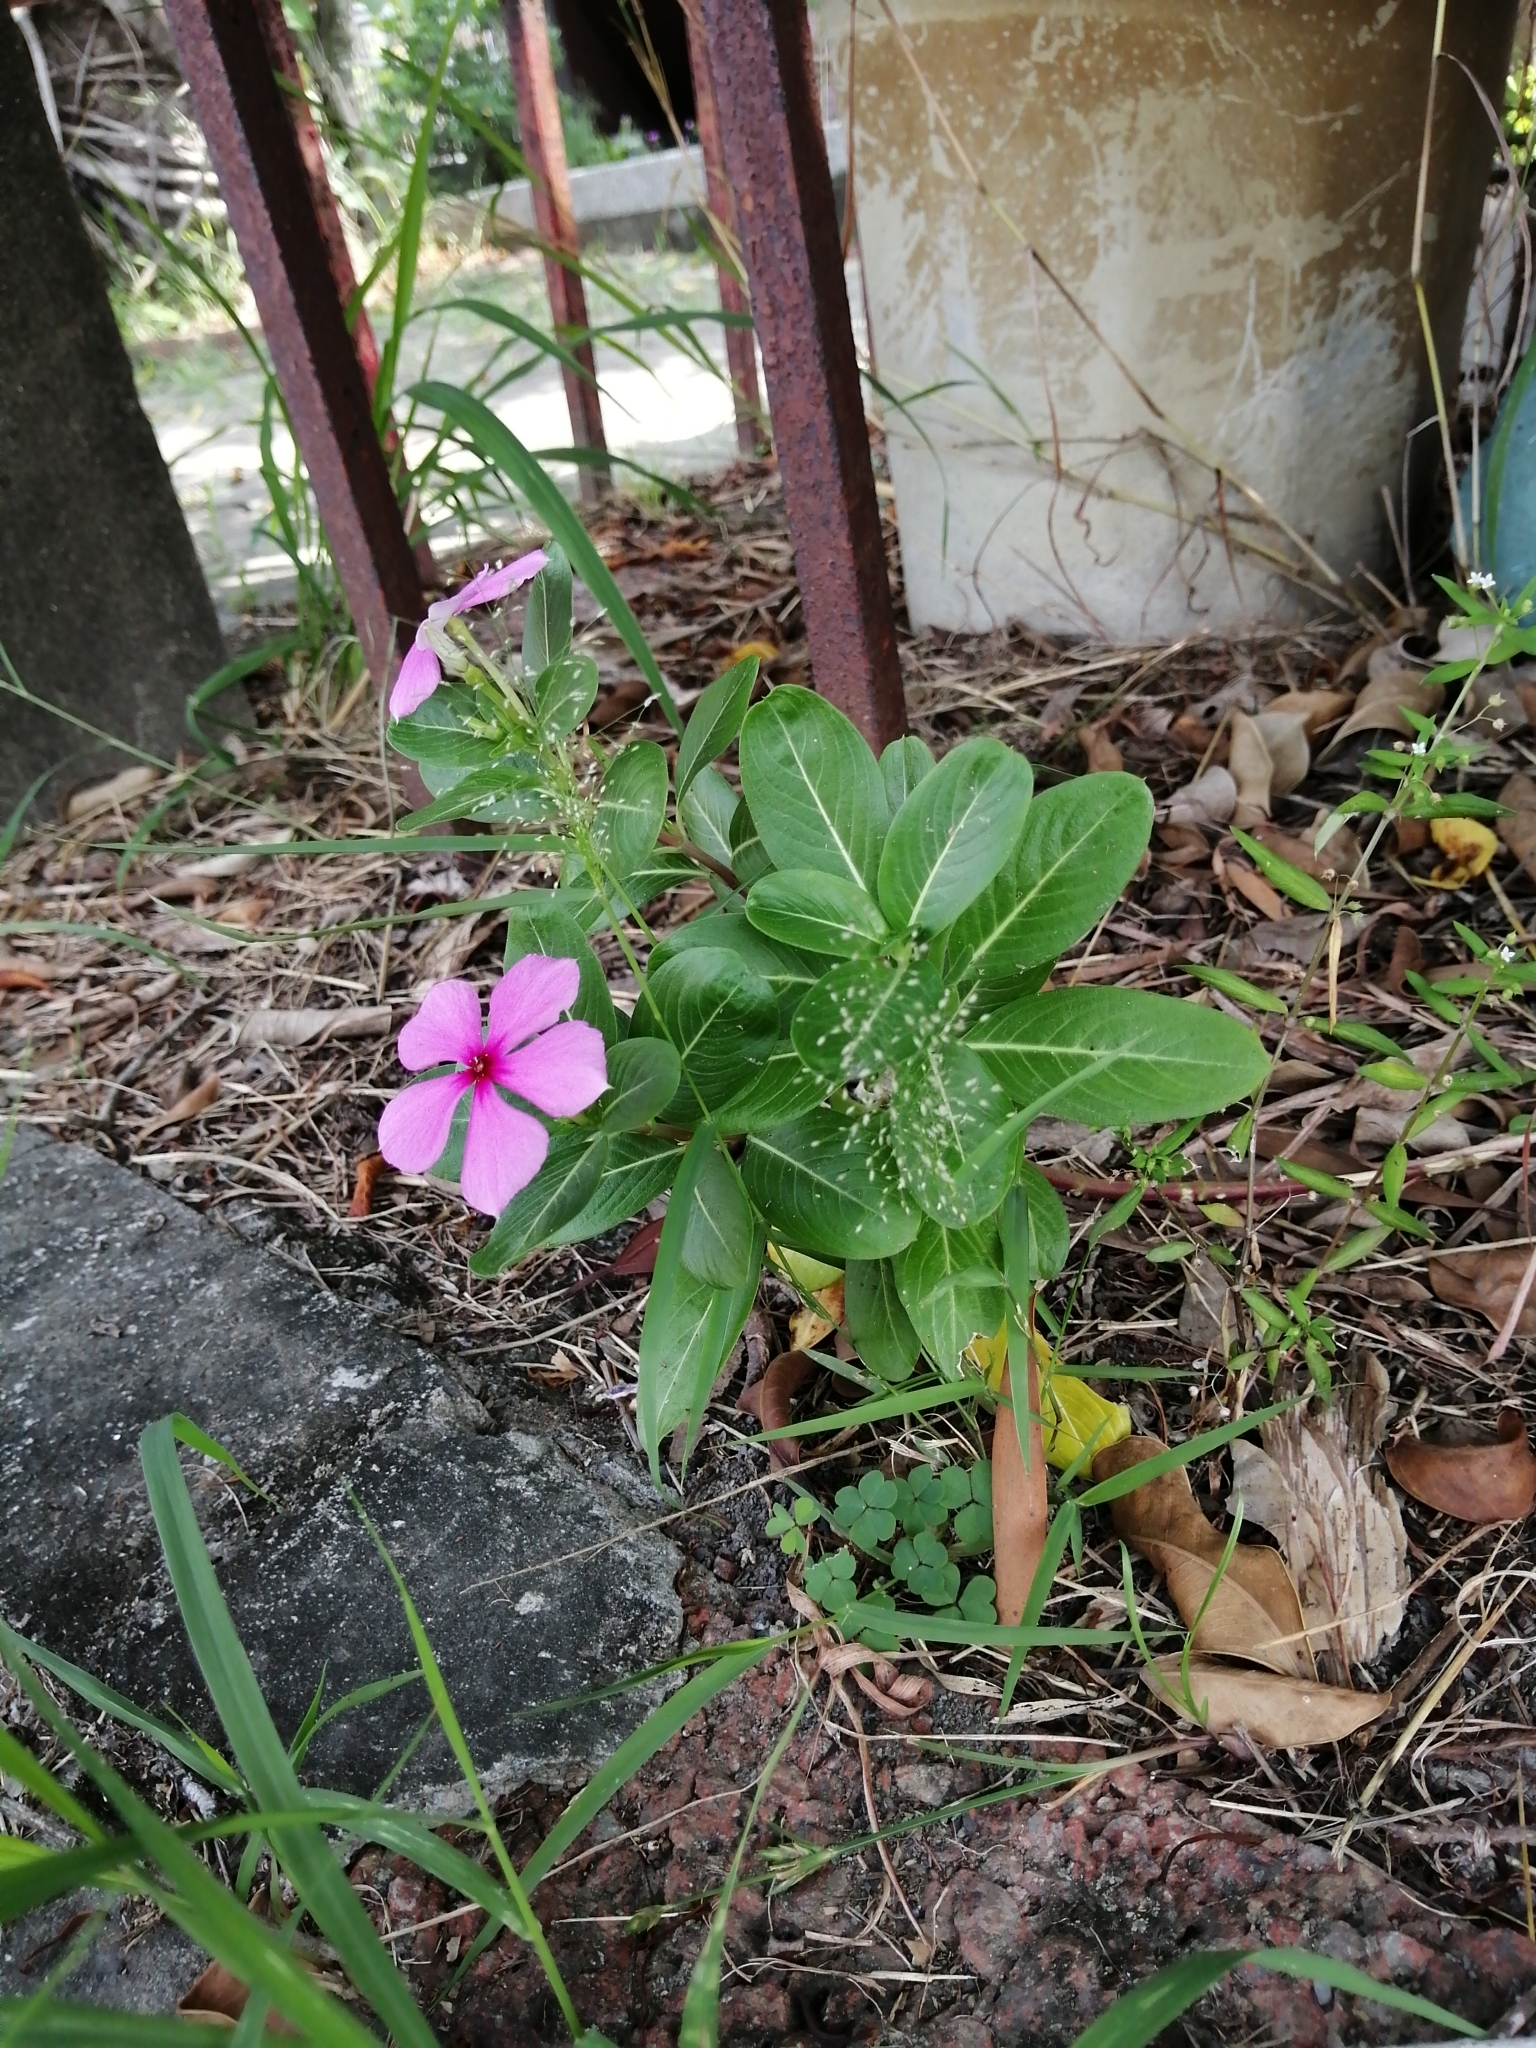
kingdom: Plantae
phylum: Tracheophyta
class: Magnoliopsida
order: Gentianales
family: Apocynaceae
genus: Catharanthus
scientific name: Catharanthus roseus
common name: Madagascar periwinkle
